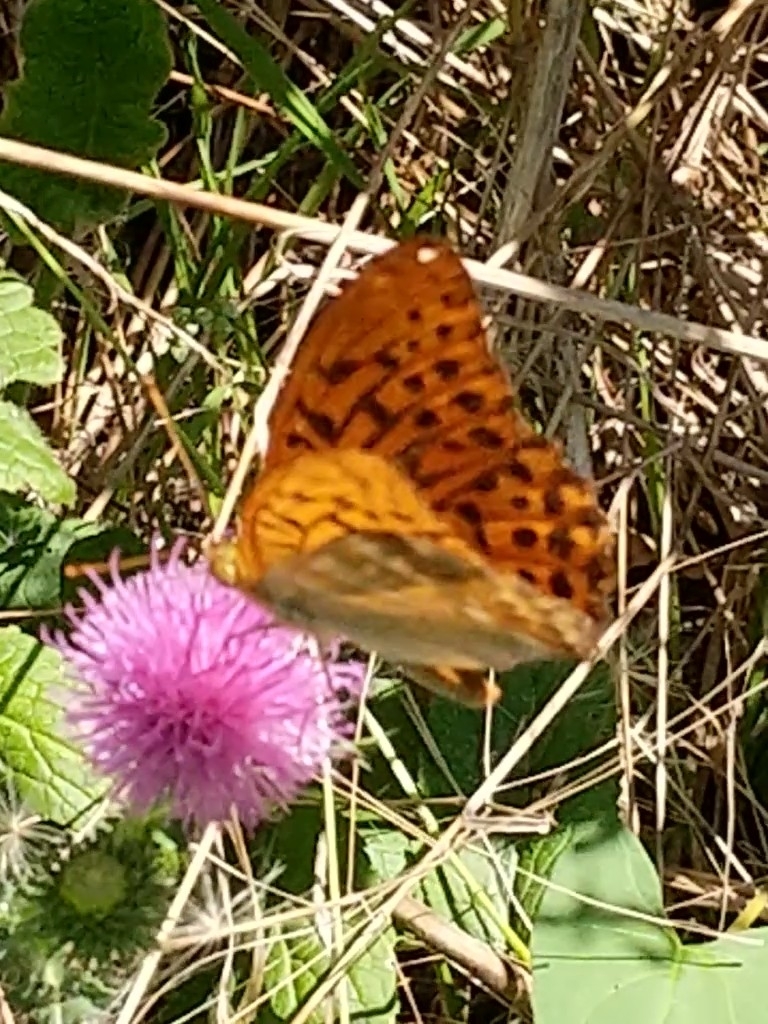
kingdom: Animalia
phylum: Arthropoda
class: Insecta
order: Lepidoptera
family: Nymphalidae
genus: Argynnis
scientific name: Argynnis paphia
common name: Silver-washed fritillary
